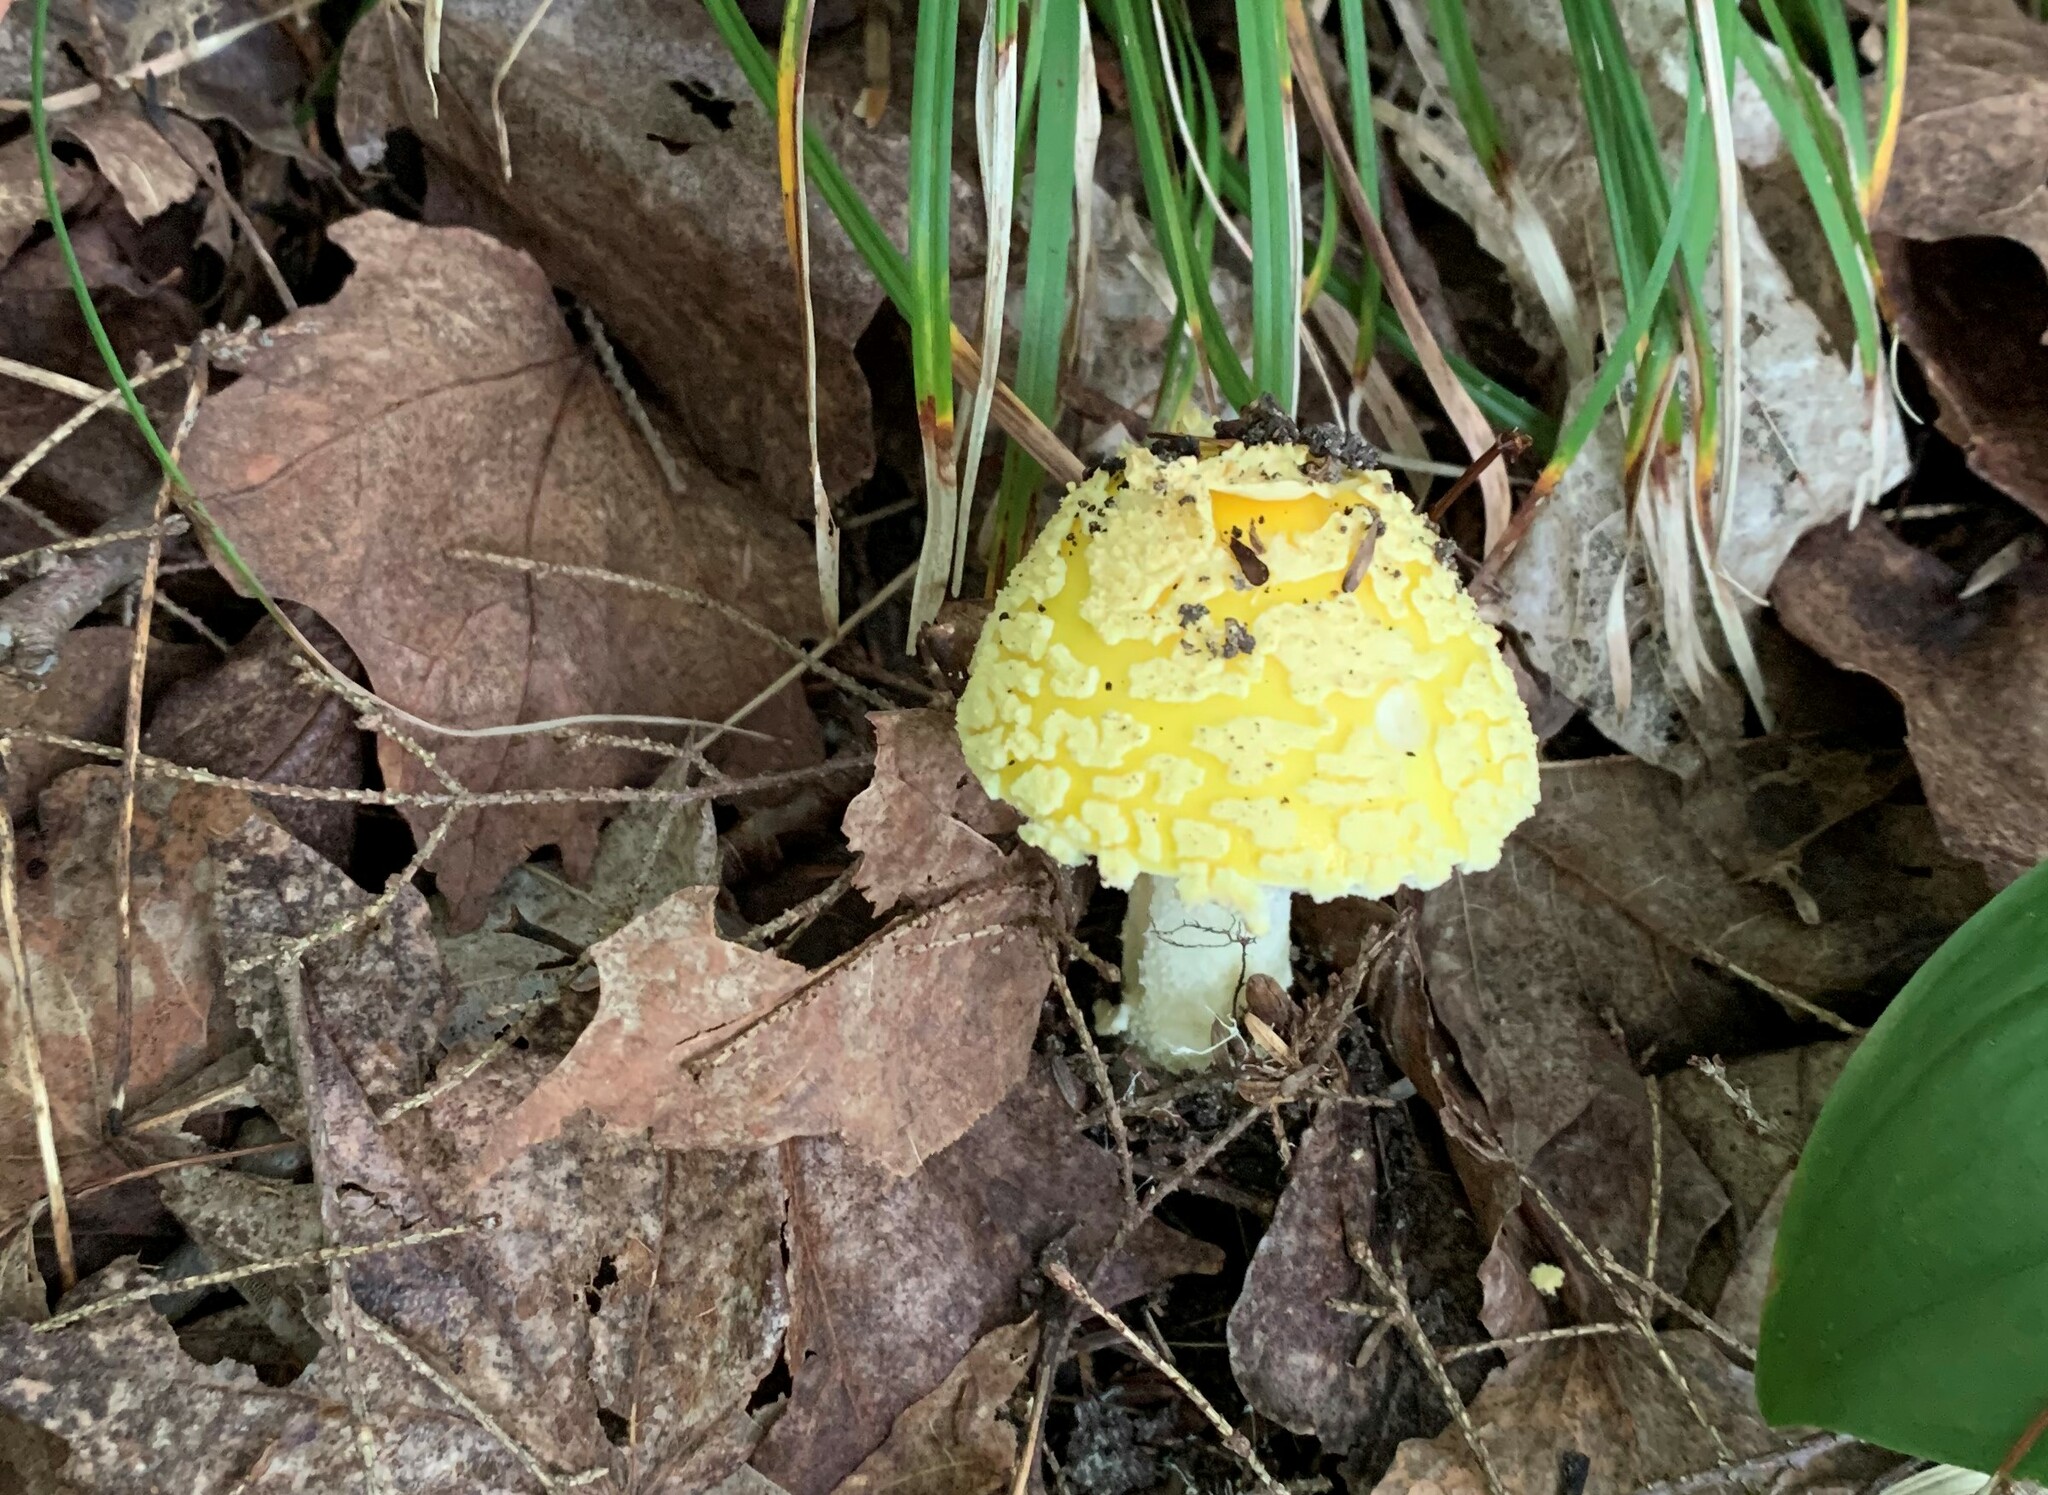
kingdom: Fungi
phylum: Basidiomycota
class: Agaricomycetes
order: Agaricales
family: Amanitaceae
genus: Amanita
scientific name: Amanita muscaria
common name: Fly agaric
